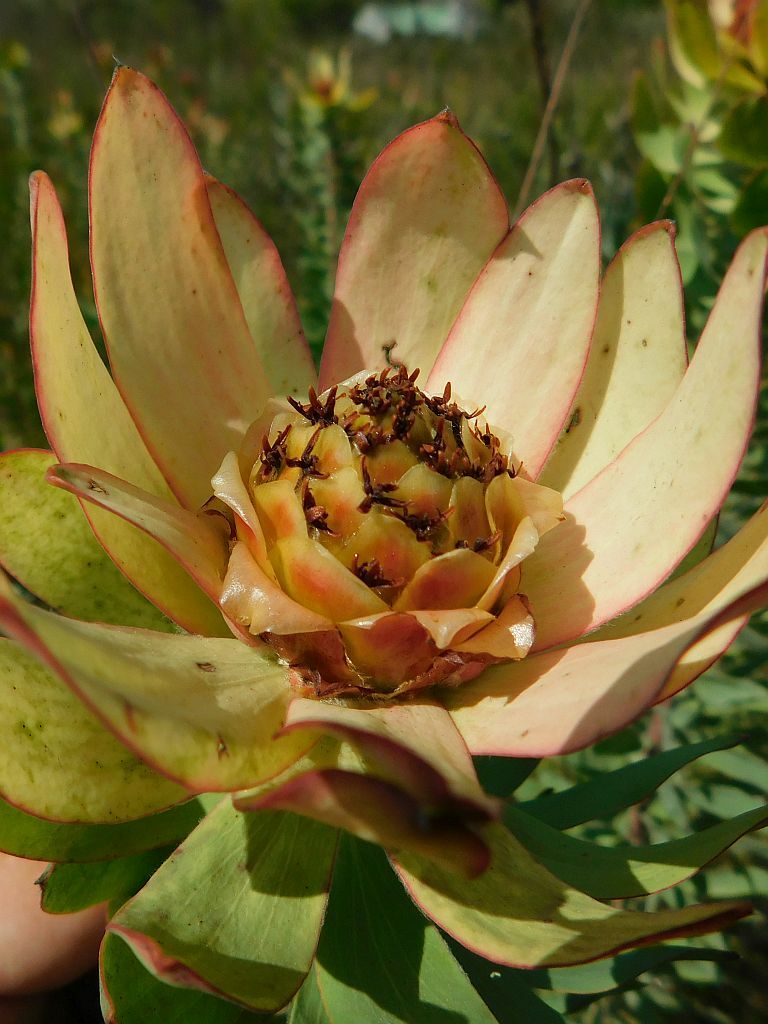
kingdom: Plantae
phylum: Tracheophyta
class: Magnoliopsida
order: Proteales
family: Proteaceae
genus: Leucadendron
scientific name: Leucadendron burchellii
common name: Riviersonderend conebush
